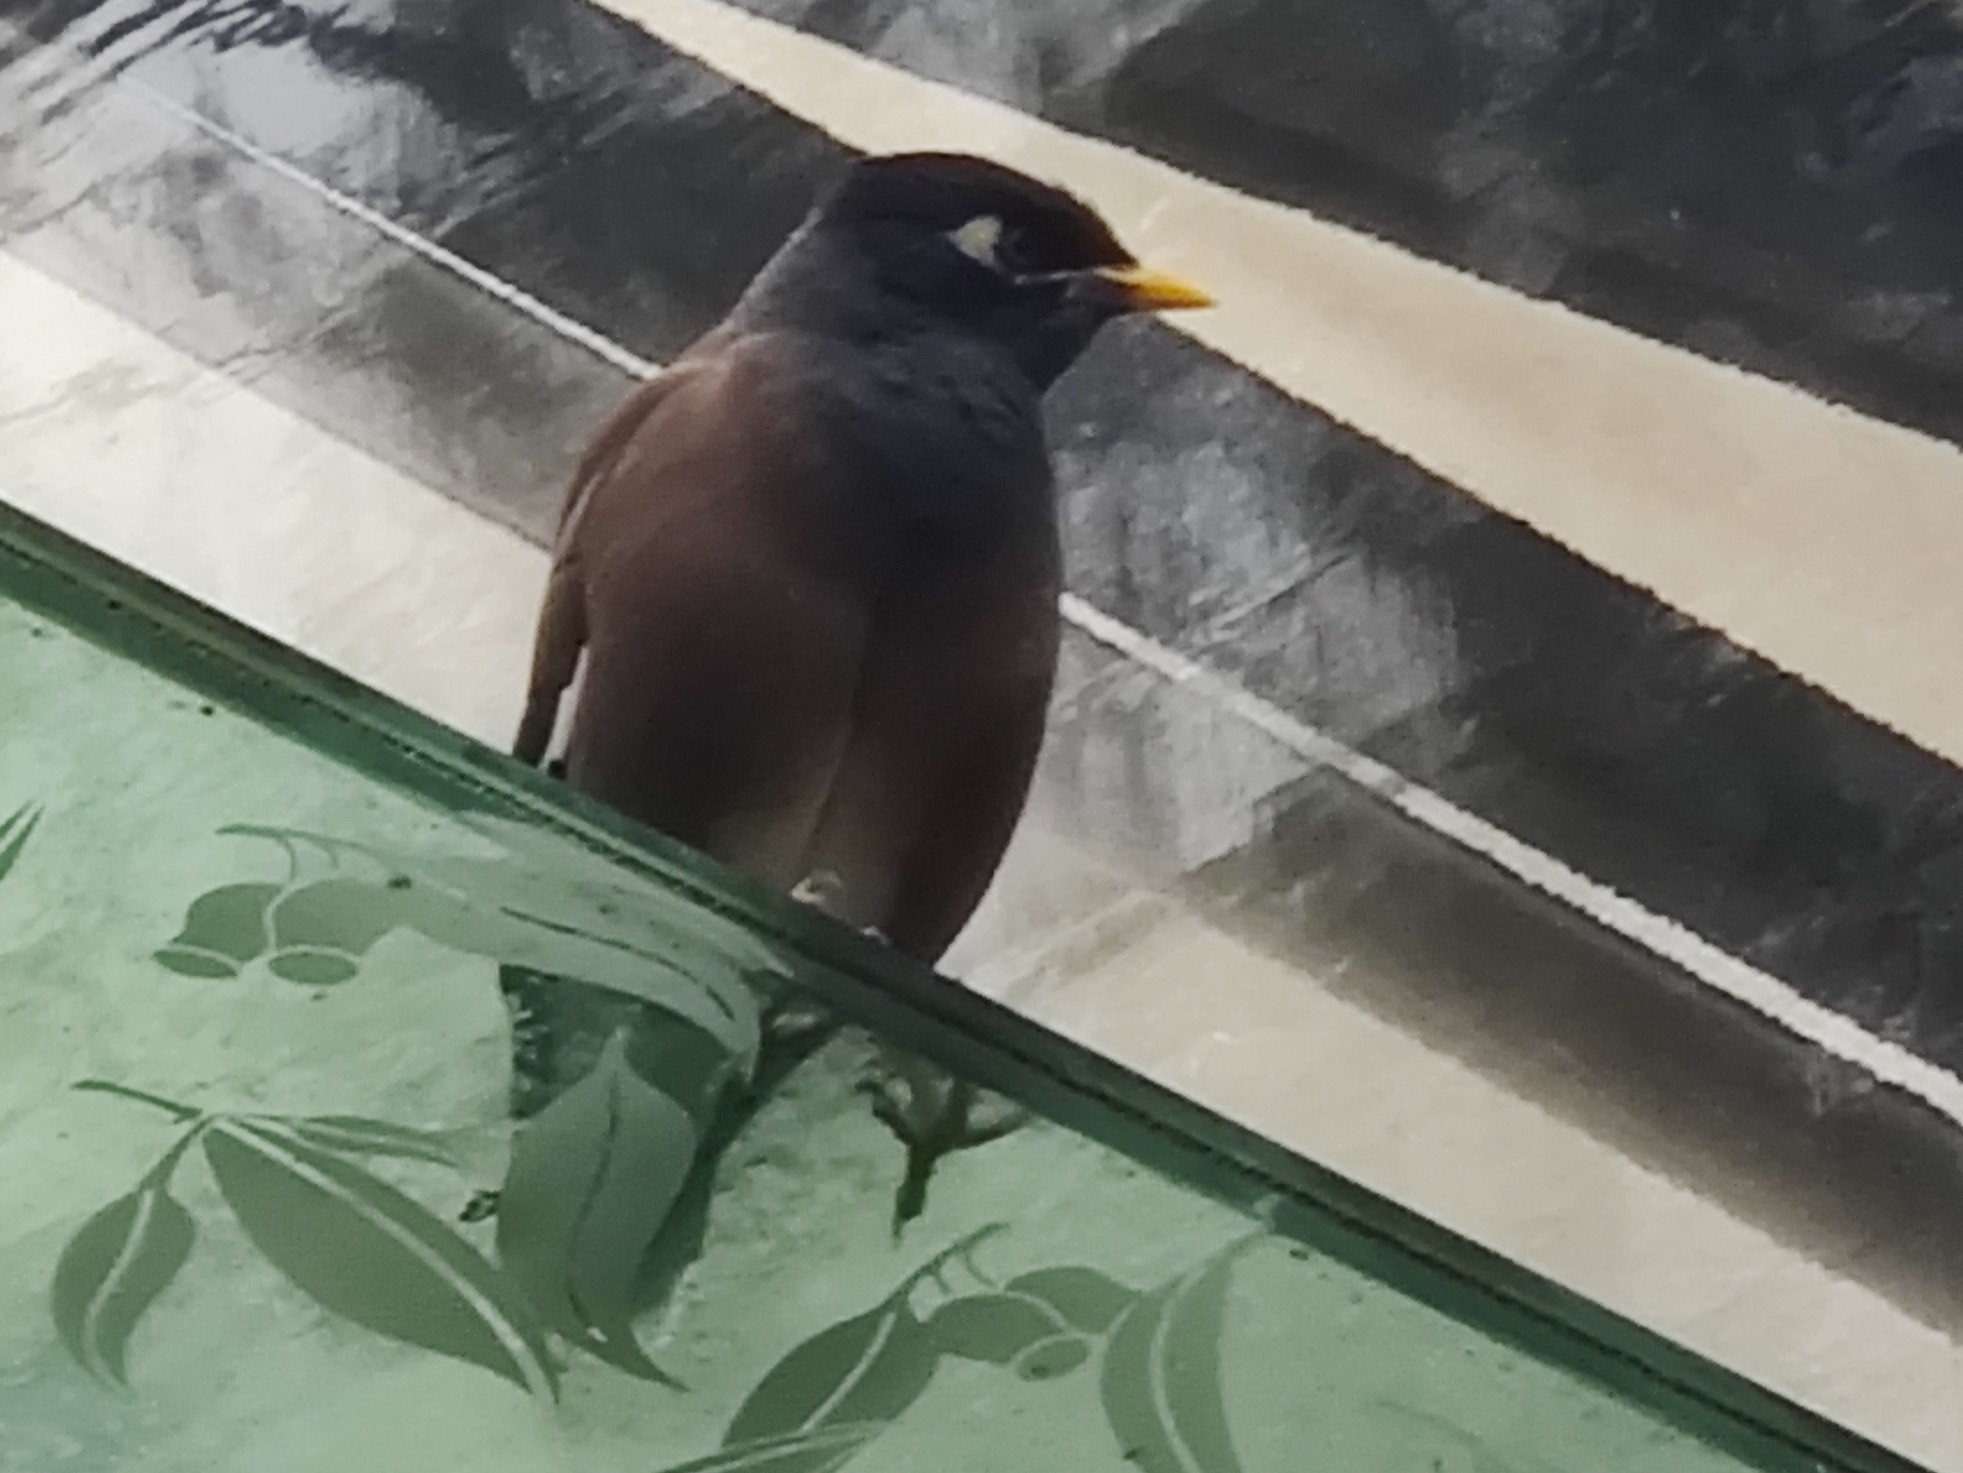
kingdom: Animalia
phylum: Chordata
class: Aves
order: Passeriformes
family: Sturnidae
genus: Acridotheres
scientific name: Acridotheres tristis
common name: Common myna
